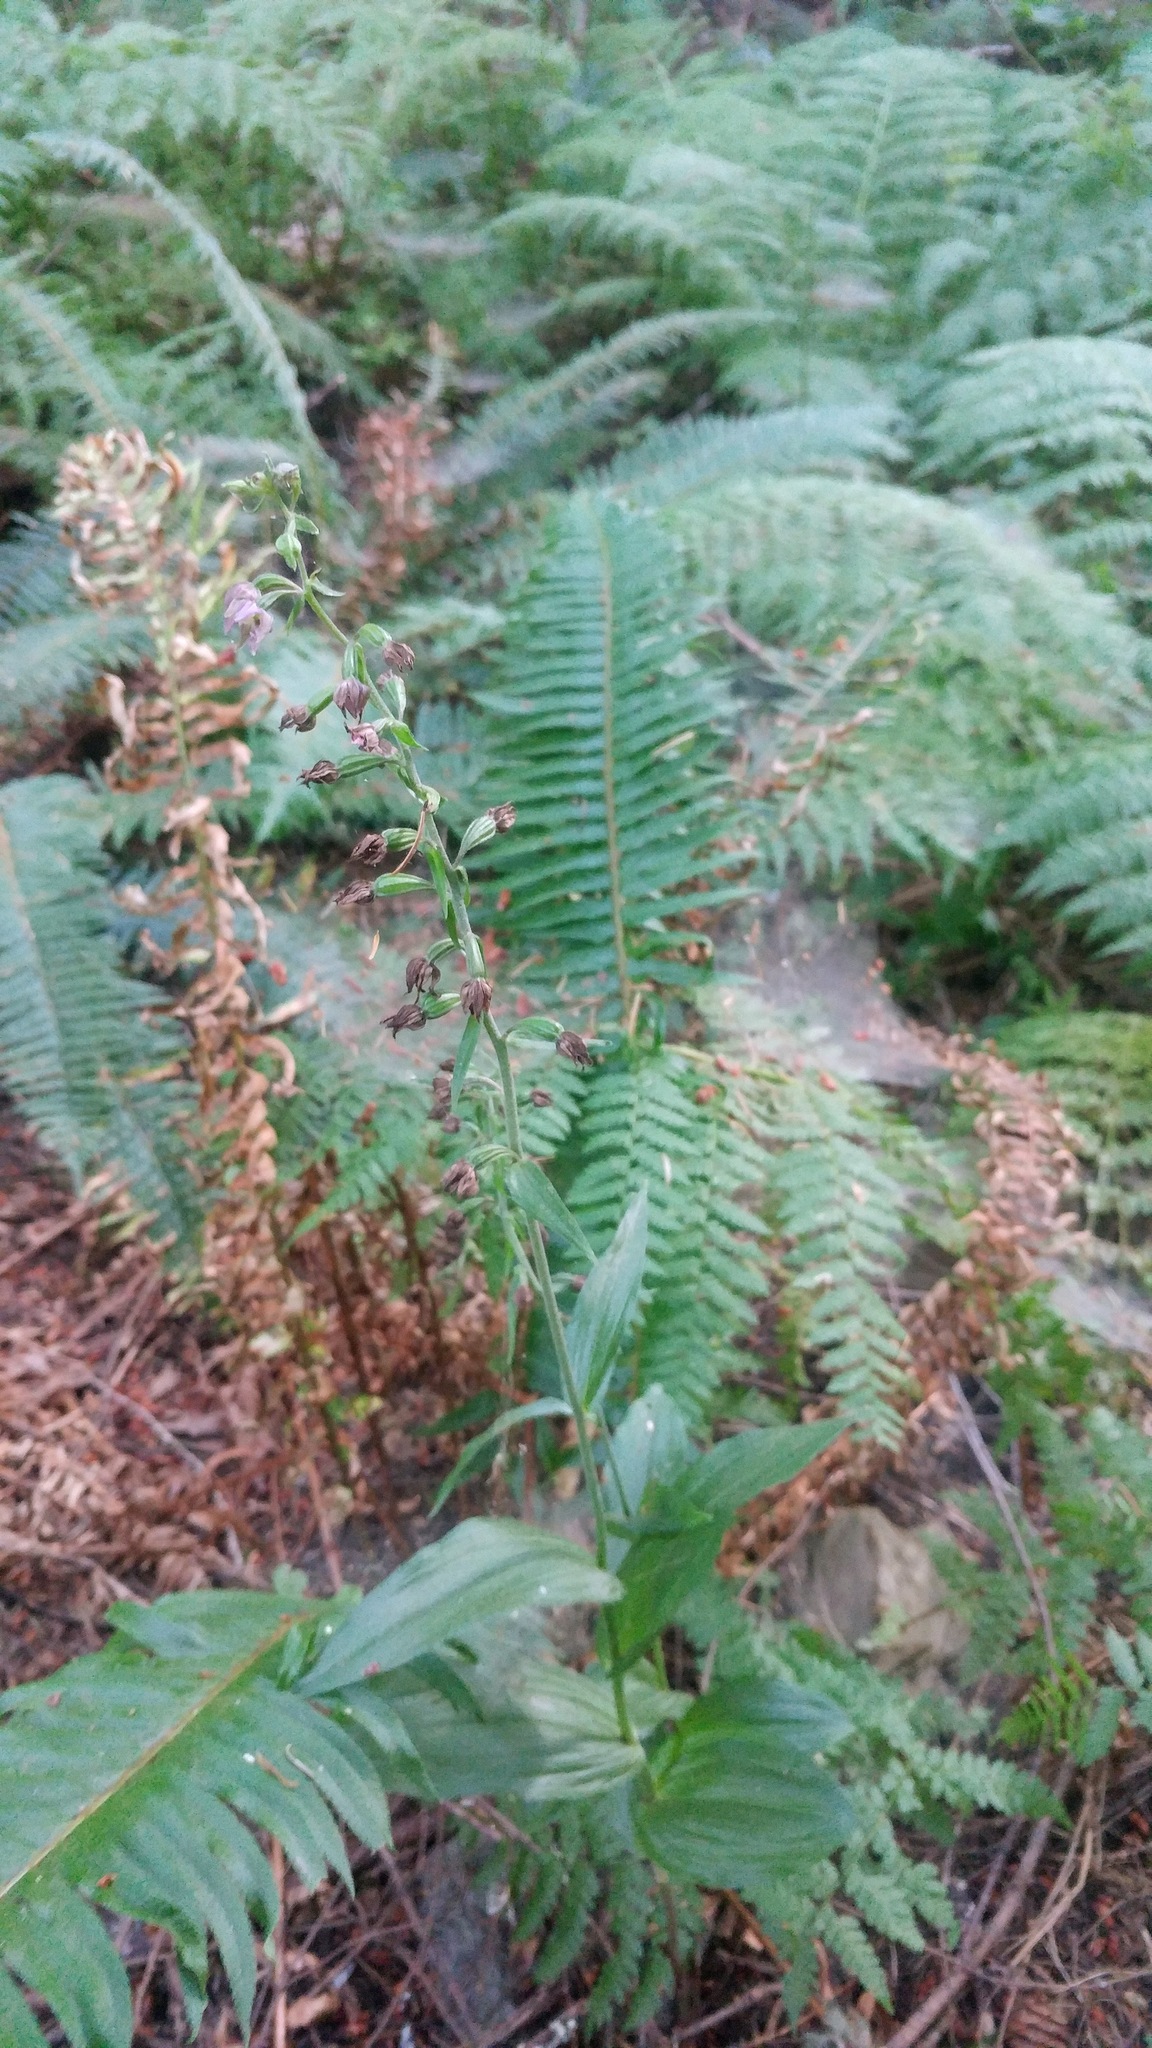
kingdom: Plantae
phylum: Tracheophyta
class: Liliopsida
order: Asparagales
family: Orchidaceae
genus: Epipactis
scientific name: Epipactis helleborine
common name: Broad-leaved helleborine
